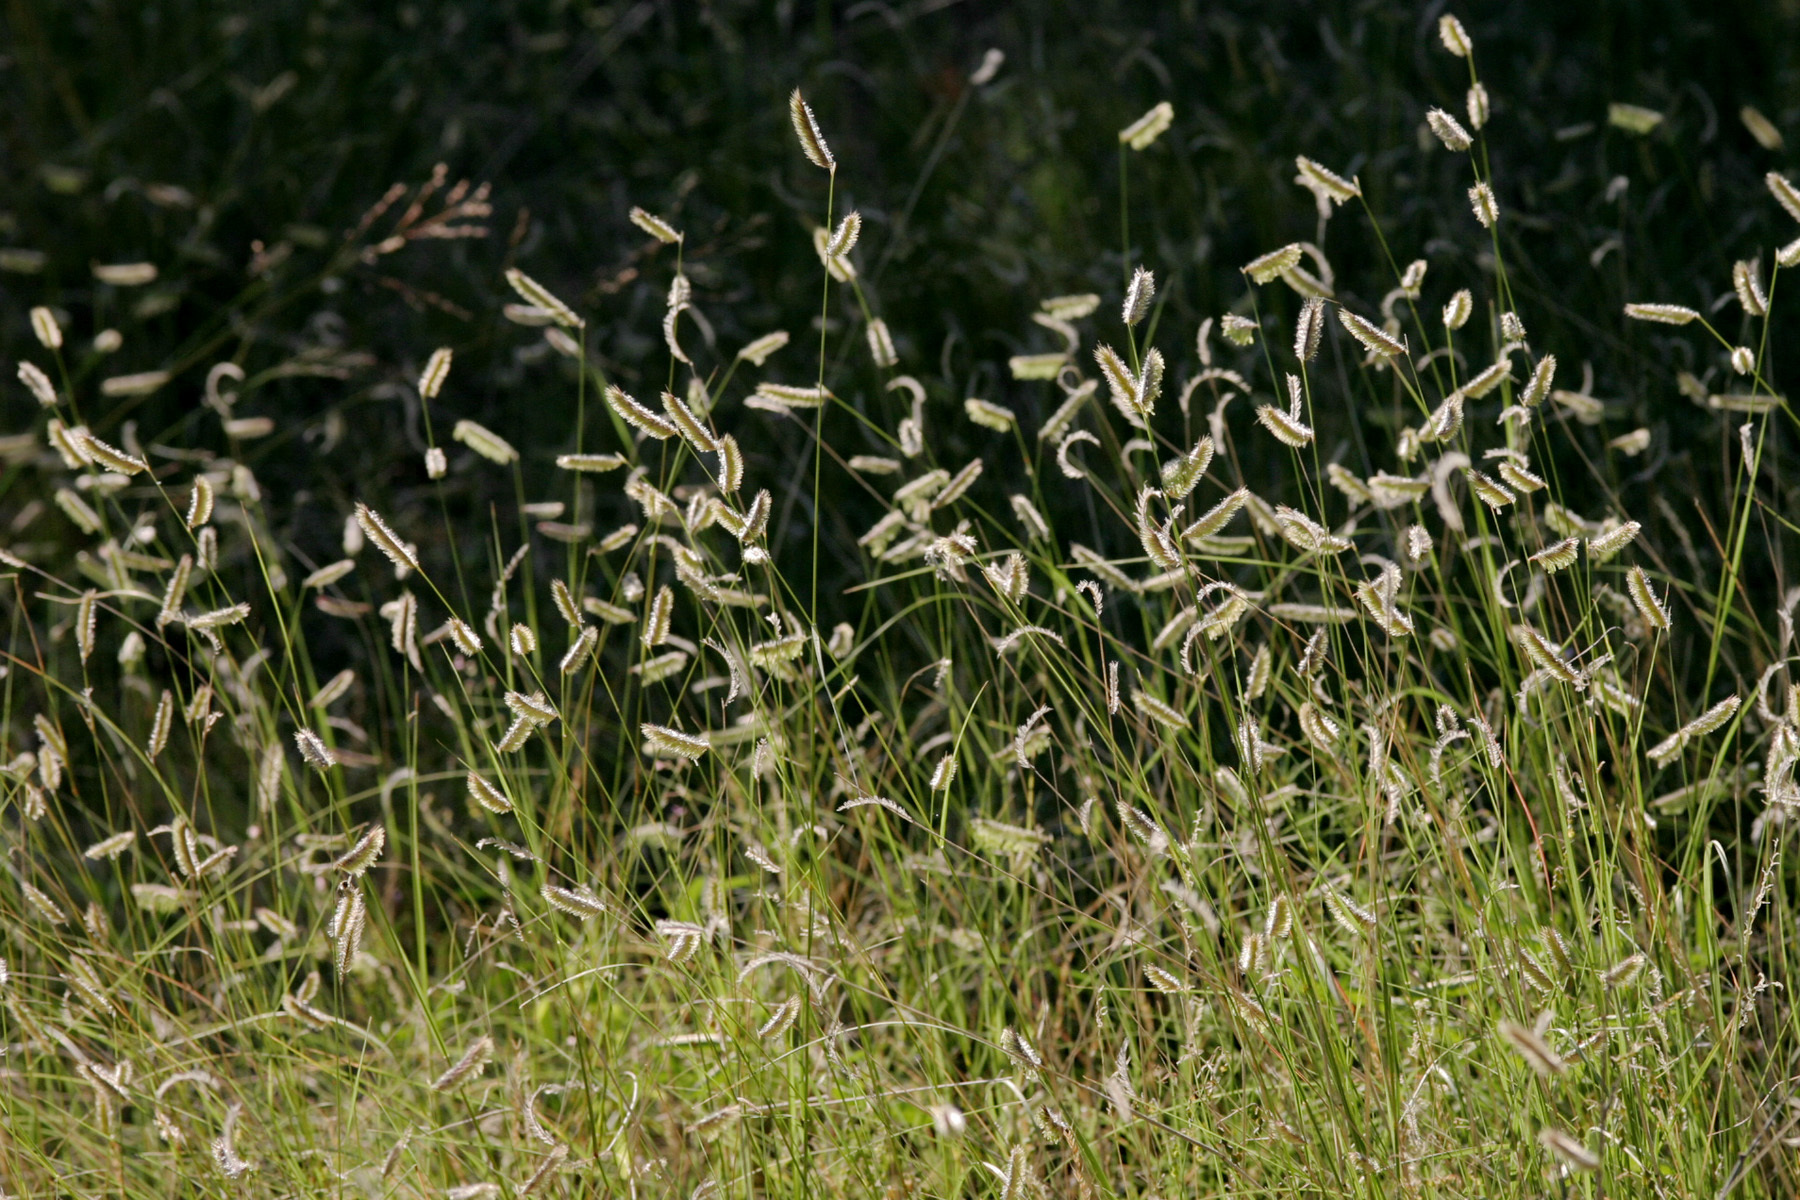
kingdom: Plantae
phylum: Tracheophyta
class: Liliopsida
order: Poales
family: Poaceae
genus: Bouteloua
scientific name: Bouteloua hirsuta
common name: Hairy grama
